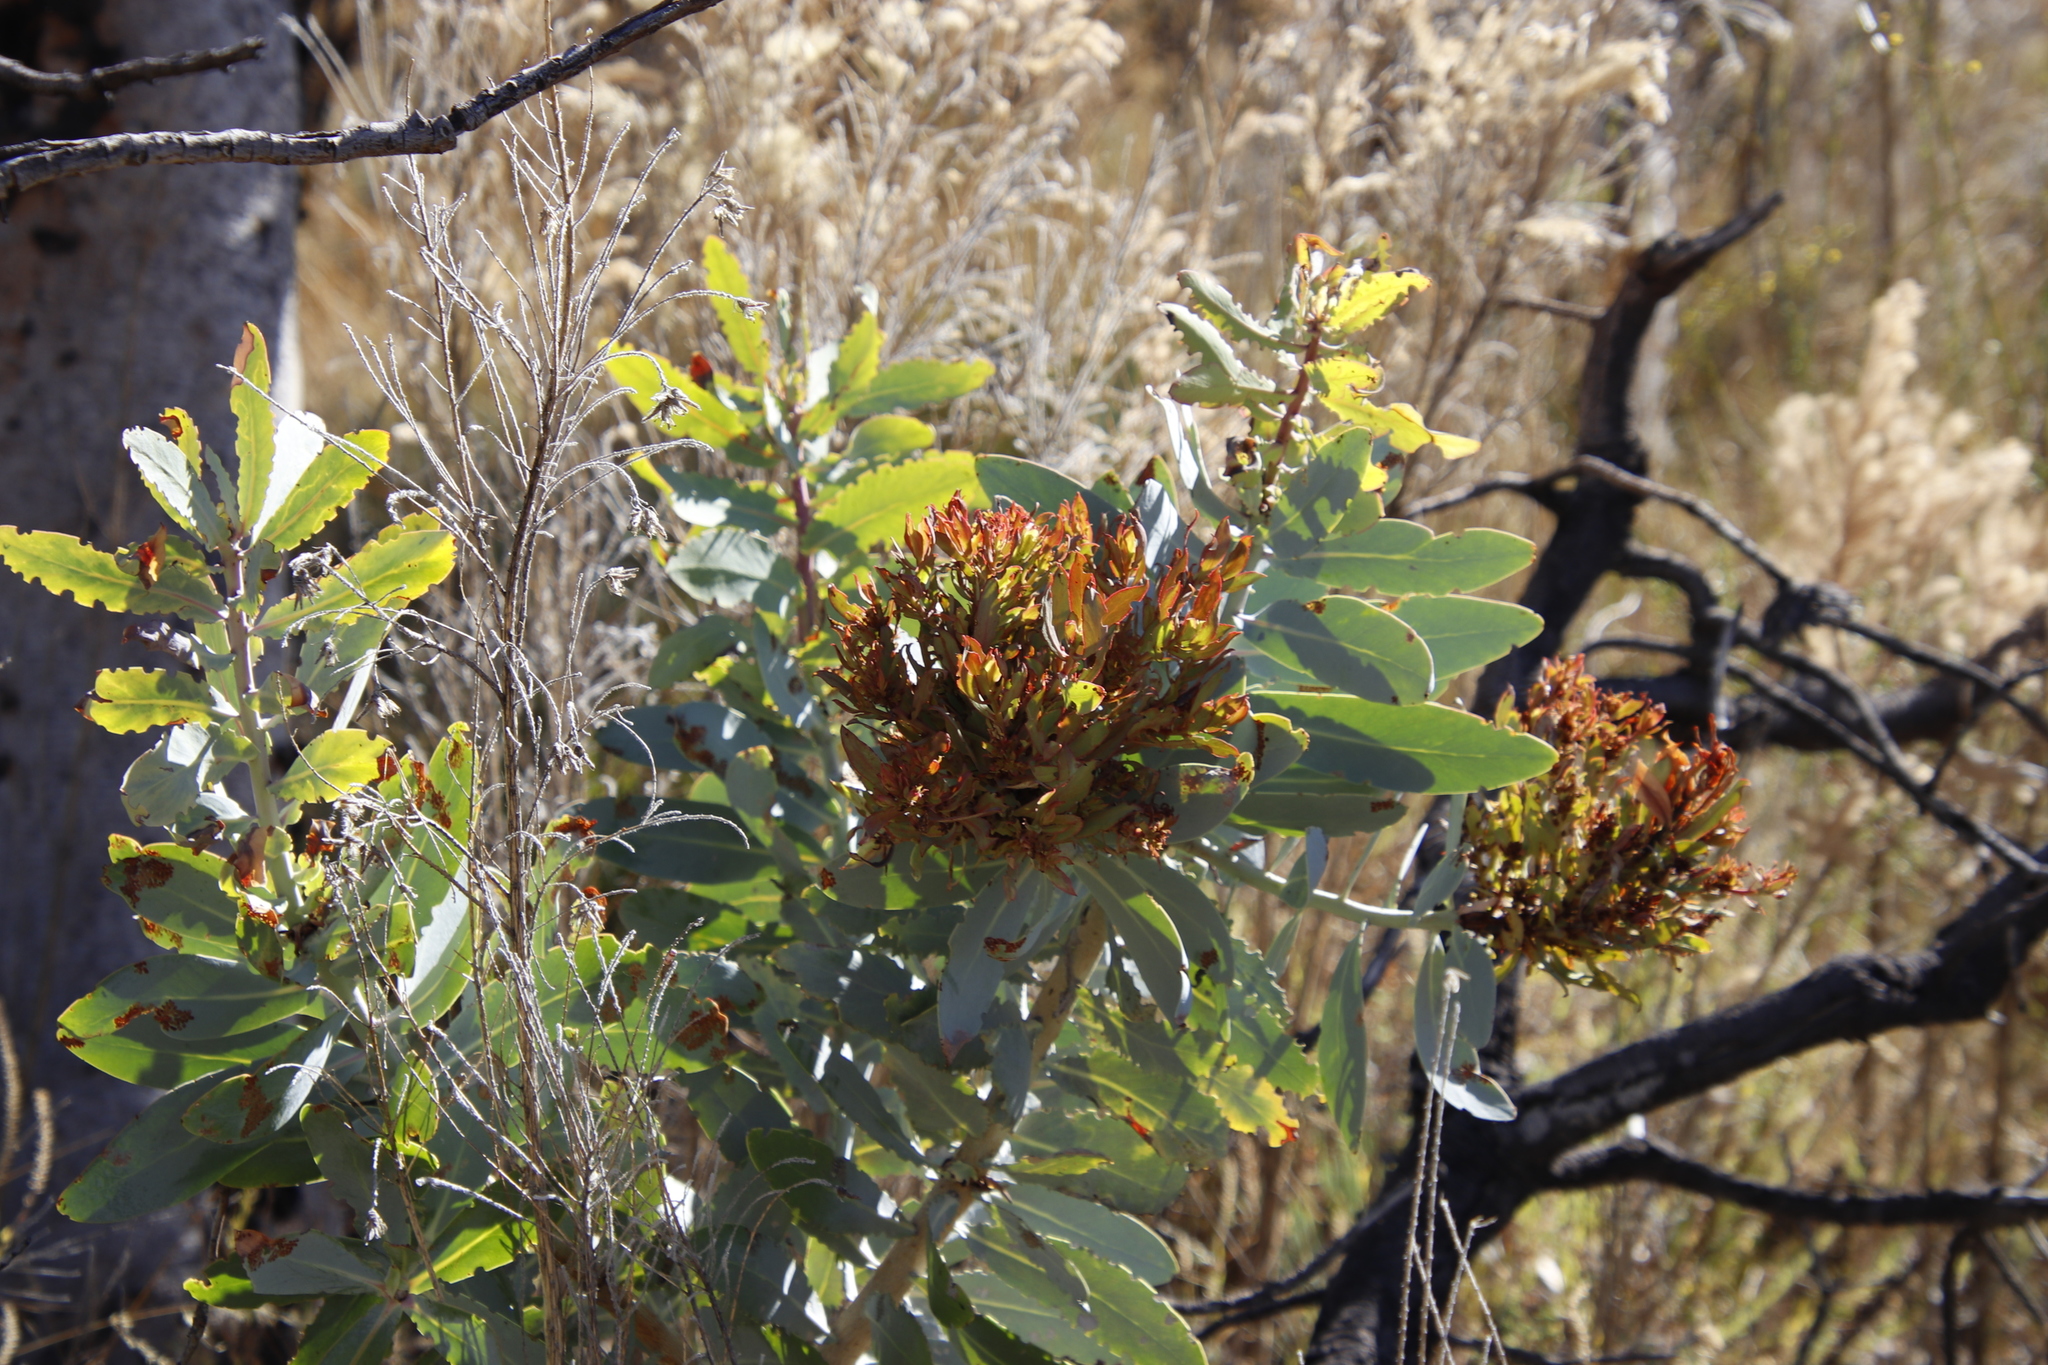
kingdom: Plantae
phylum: Tracheophyta
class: Magnoliopsida
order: Proteales
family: Proteaceae
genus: Protea
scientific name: Protea nitida
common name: Tree protea
